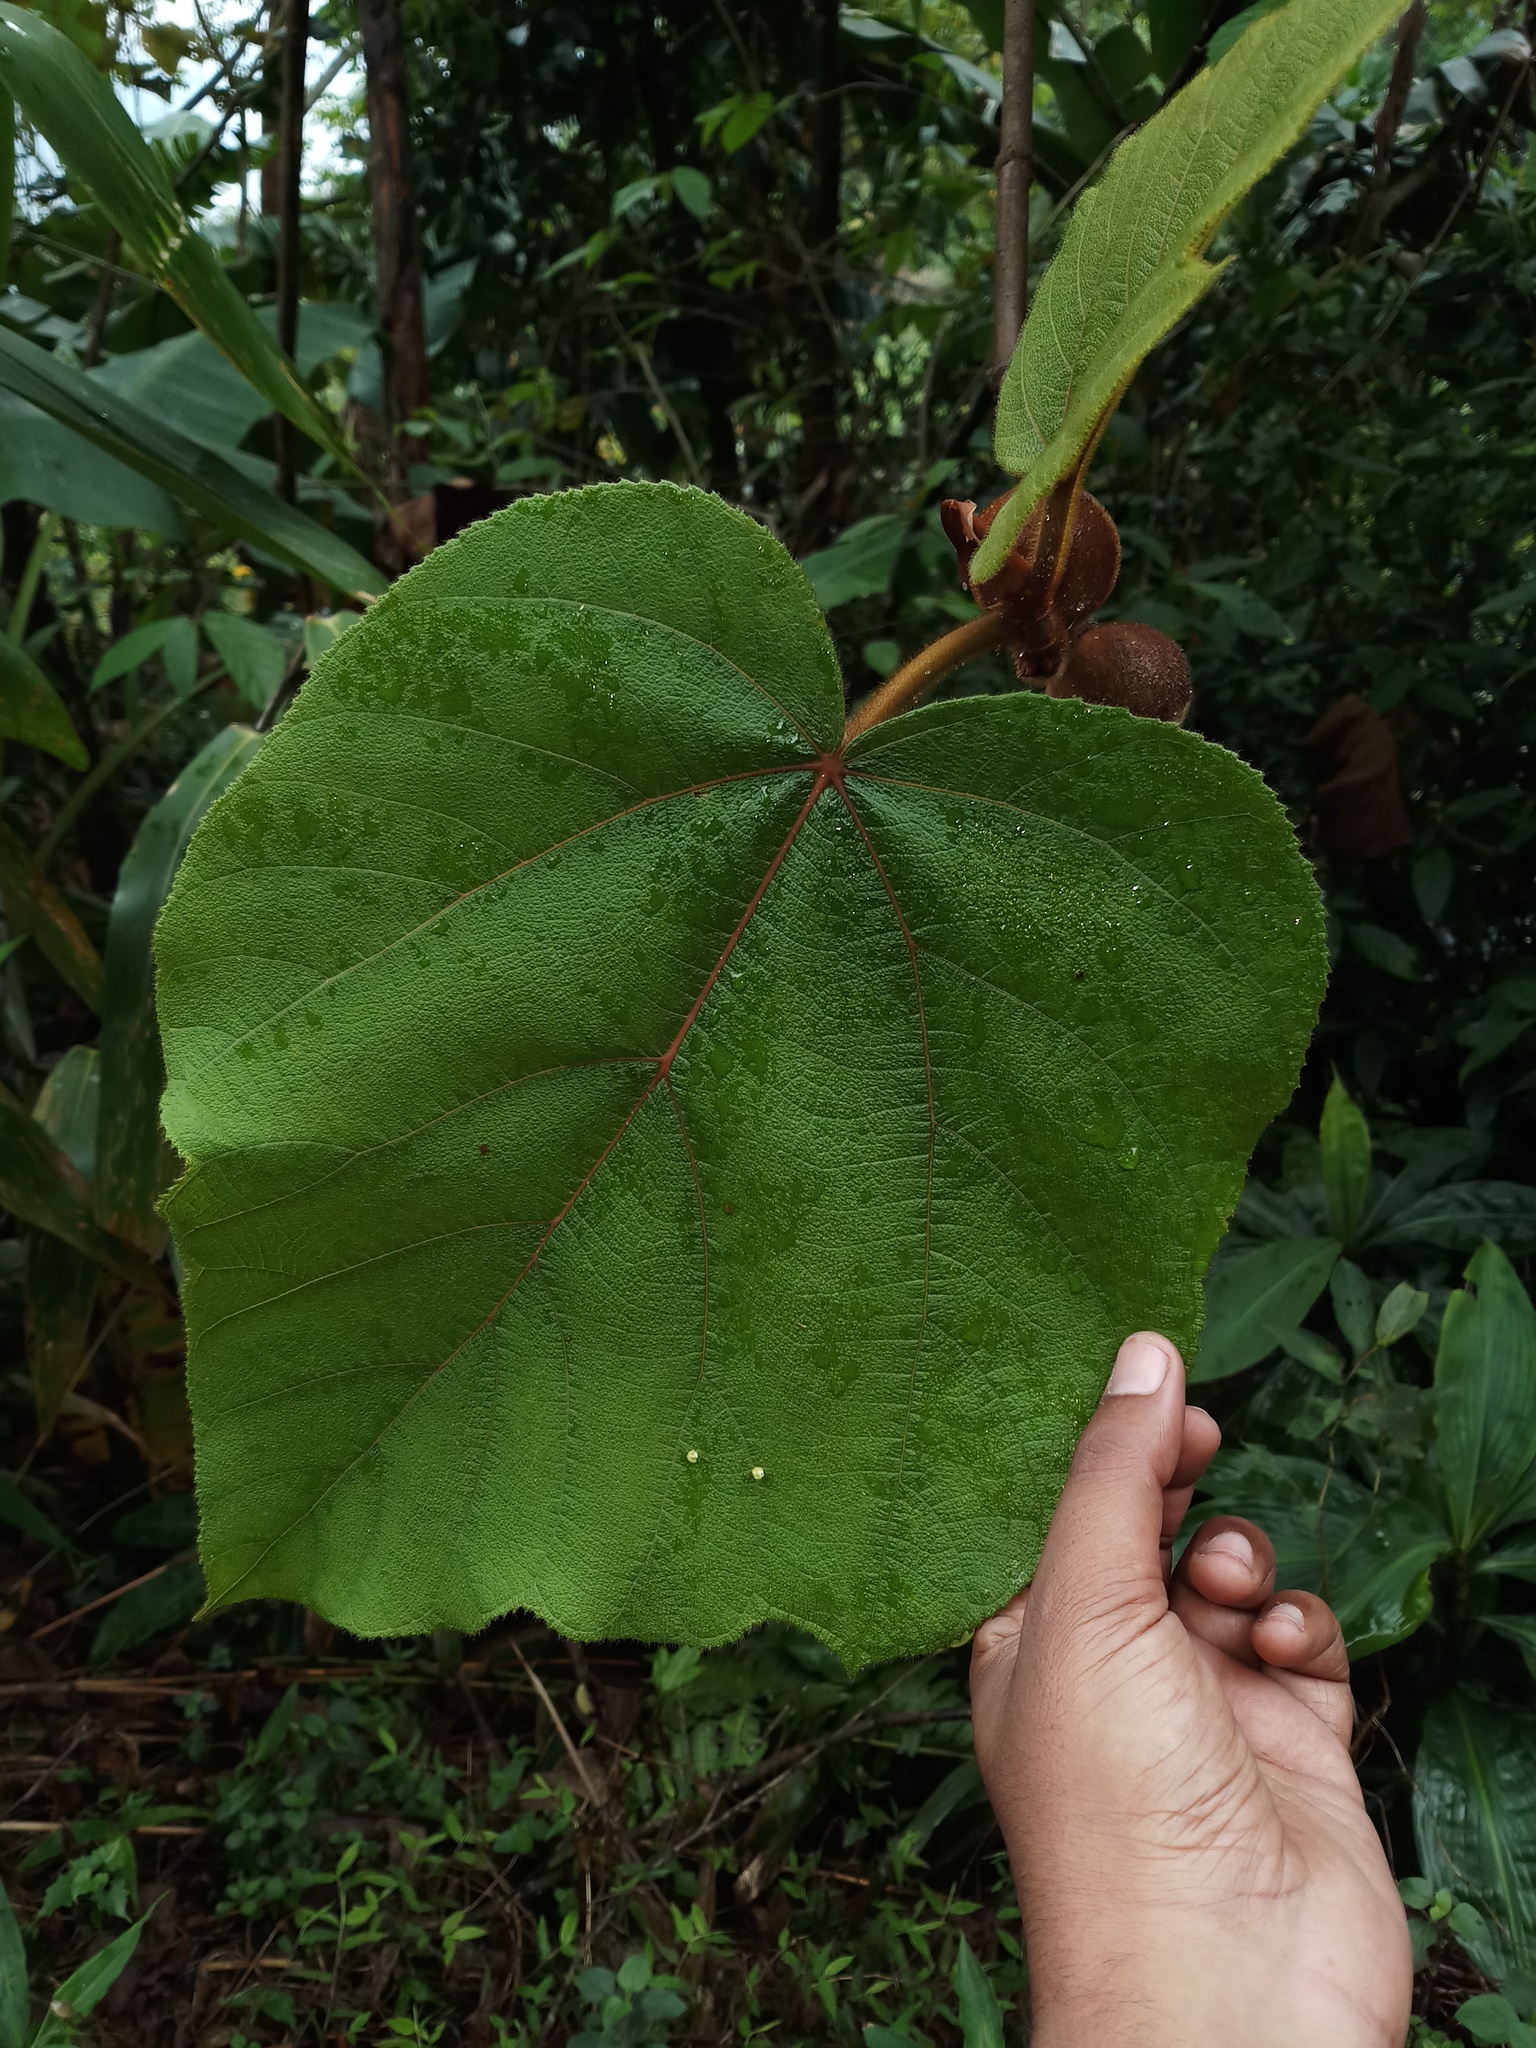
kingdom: Plantae
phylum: Tracheophyta
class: Magnoliopsida
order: Rosales
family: Moraceae
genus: Ficus
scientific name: Ficus simplicissima
